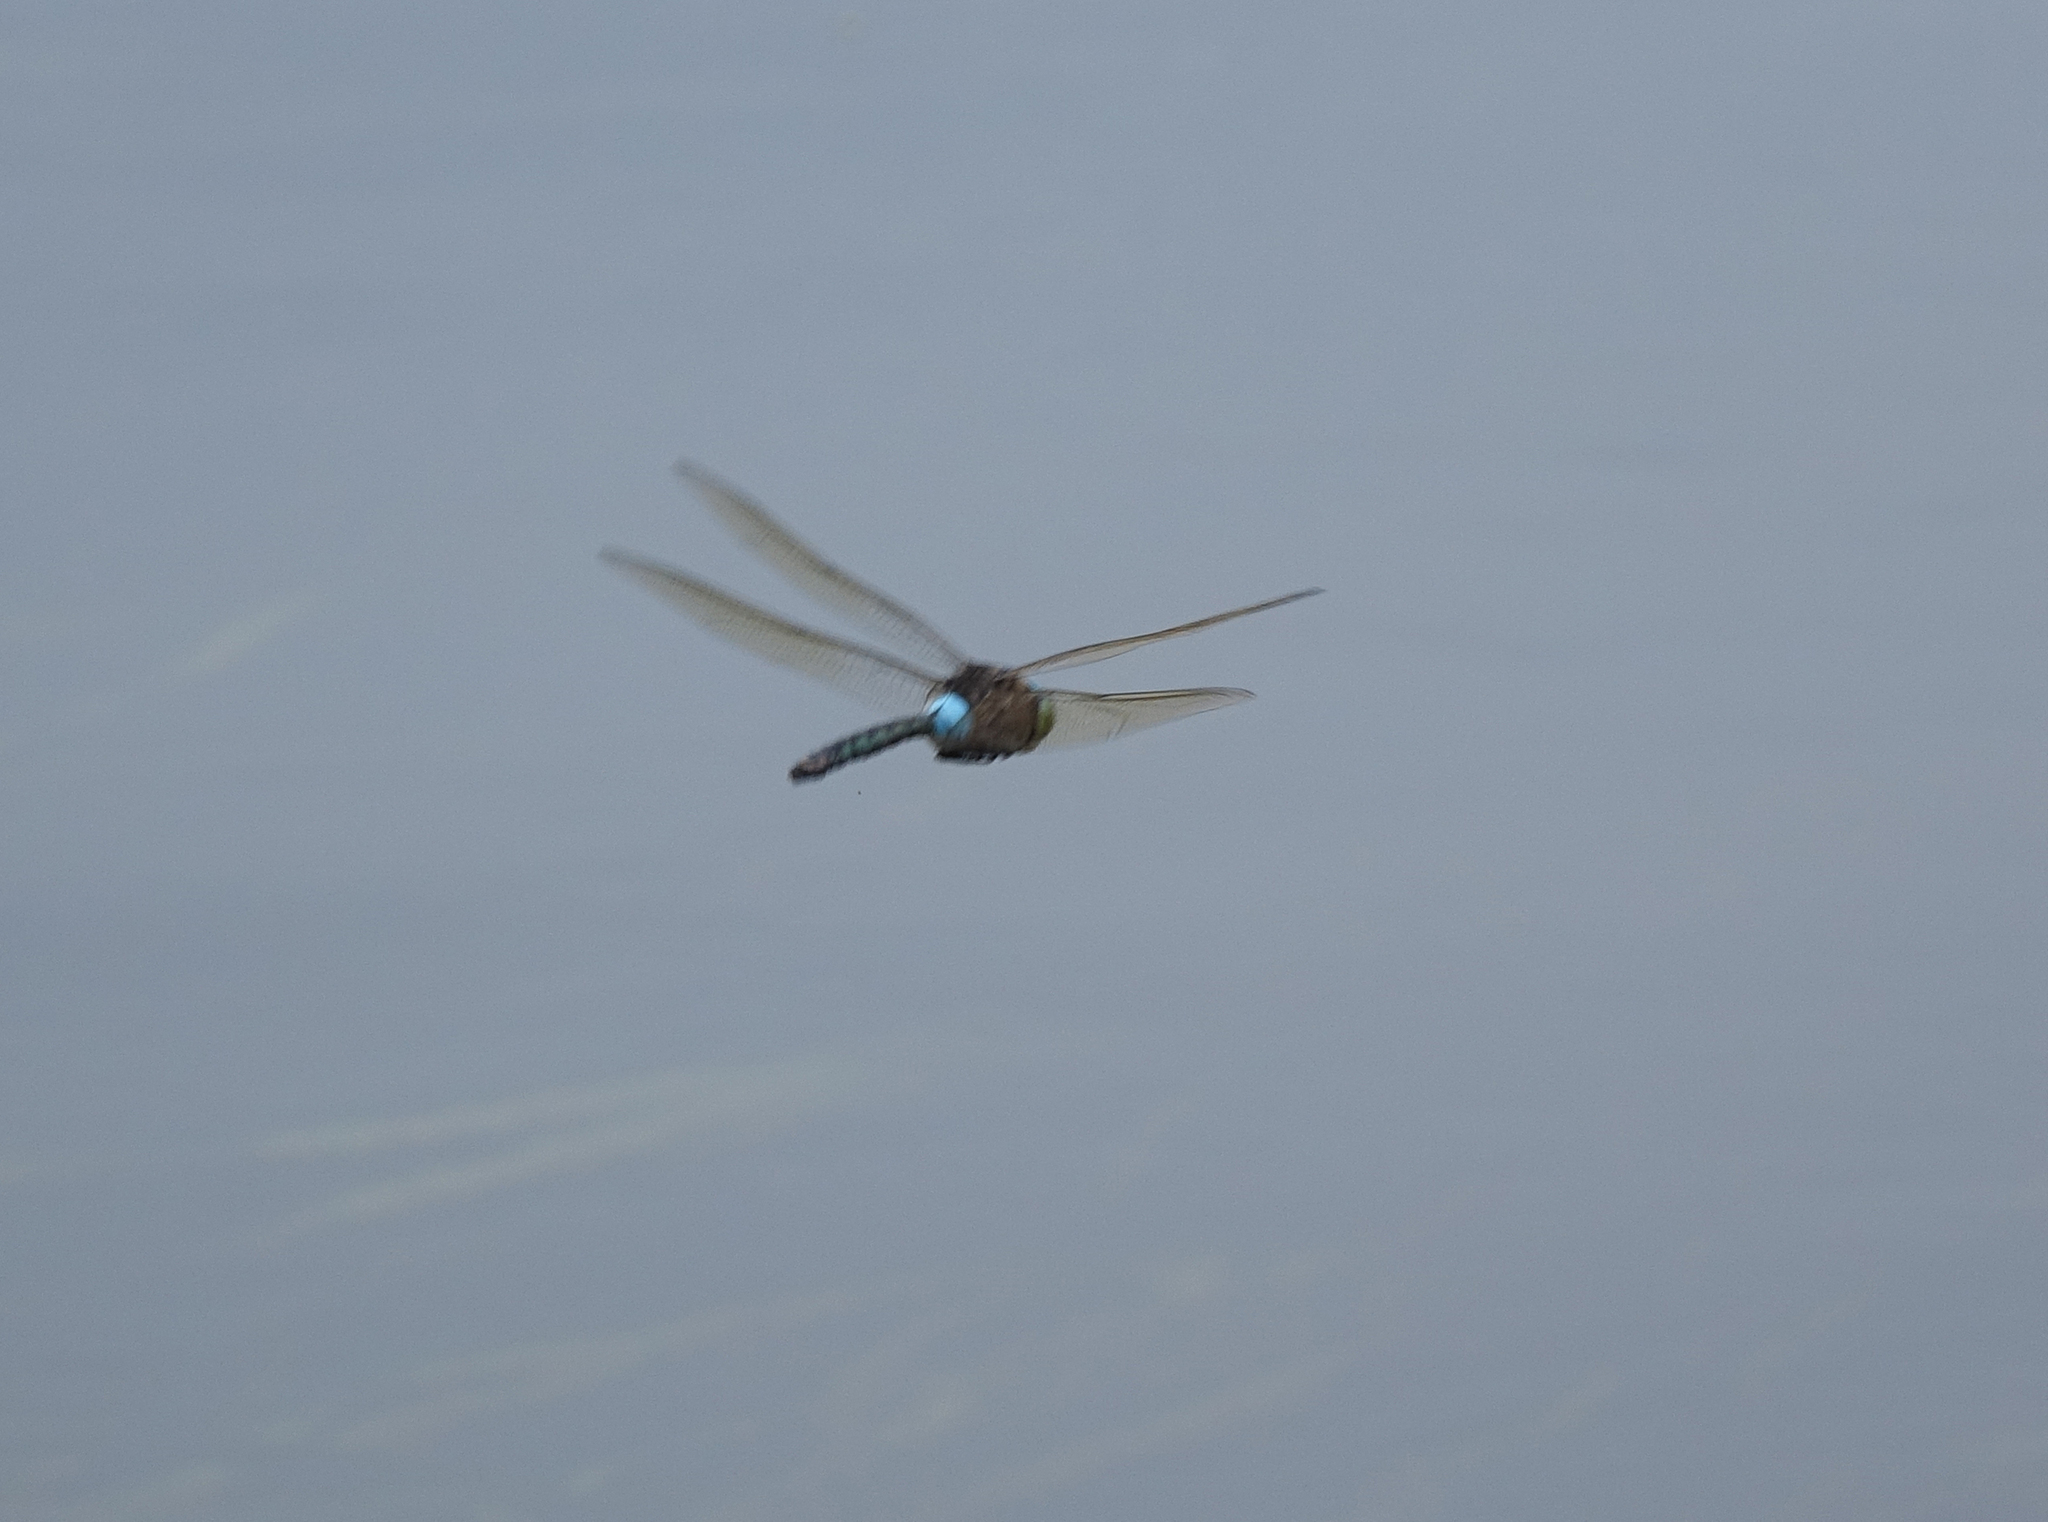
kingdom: Animalia
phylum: Arthropoda
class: Insecta
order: Odonata
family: Aeshnidae
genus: Anax
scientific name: Anax parthenope
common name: Lesser emperor
